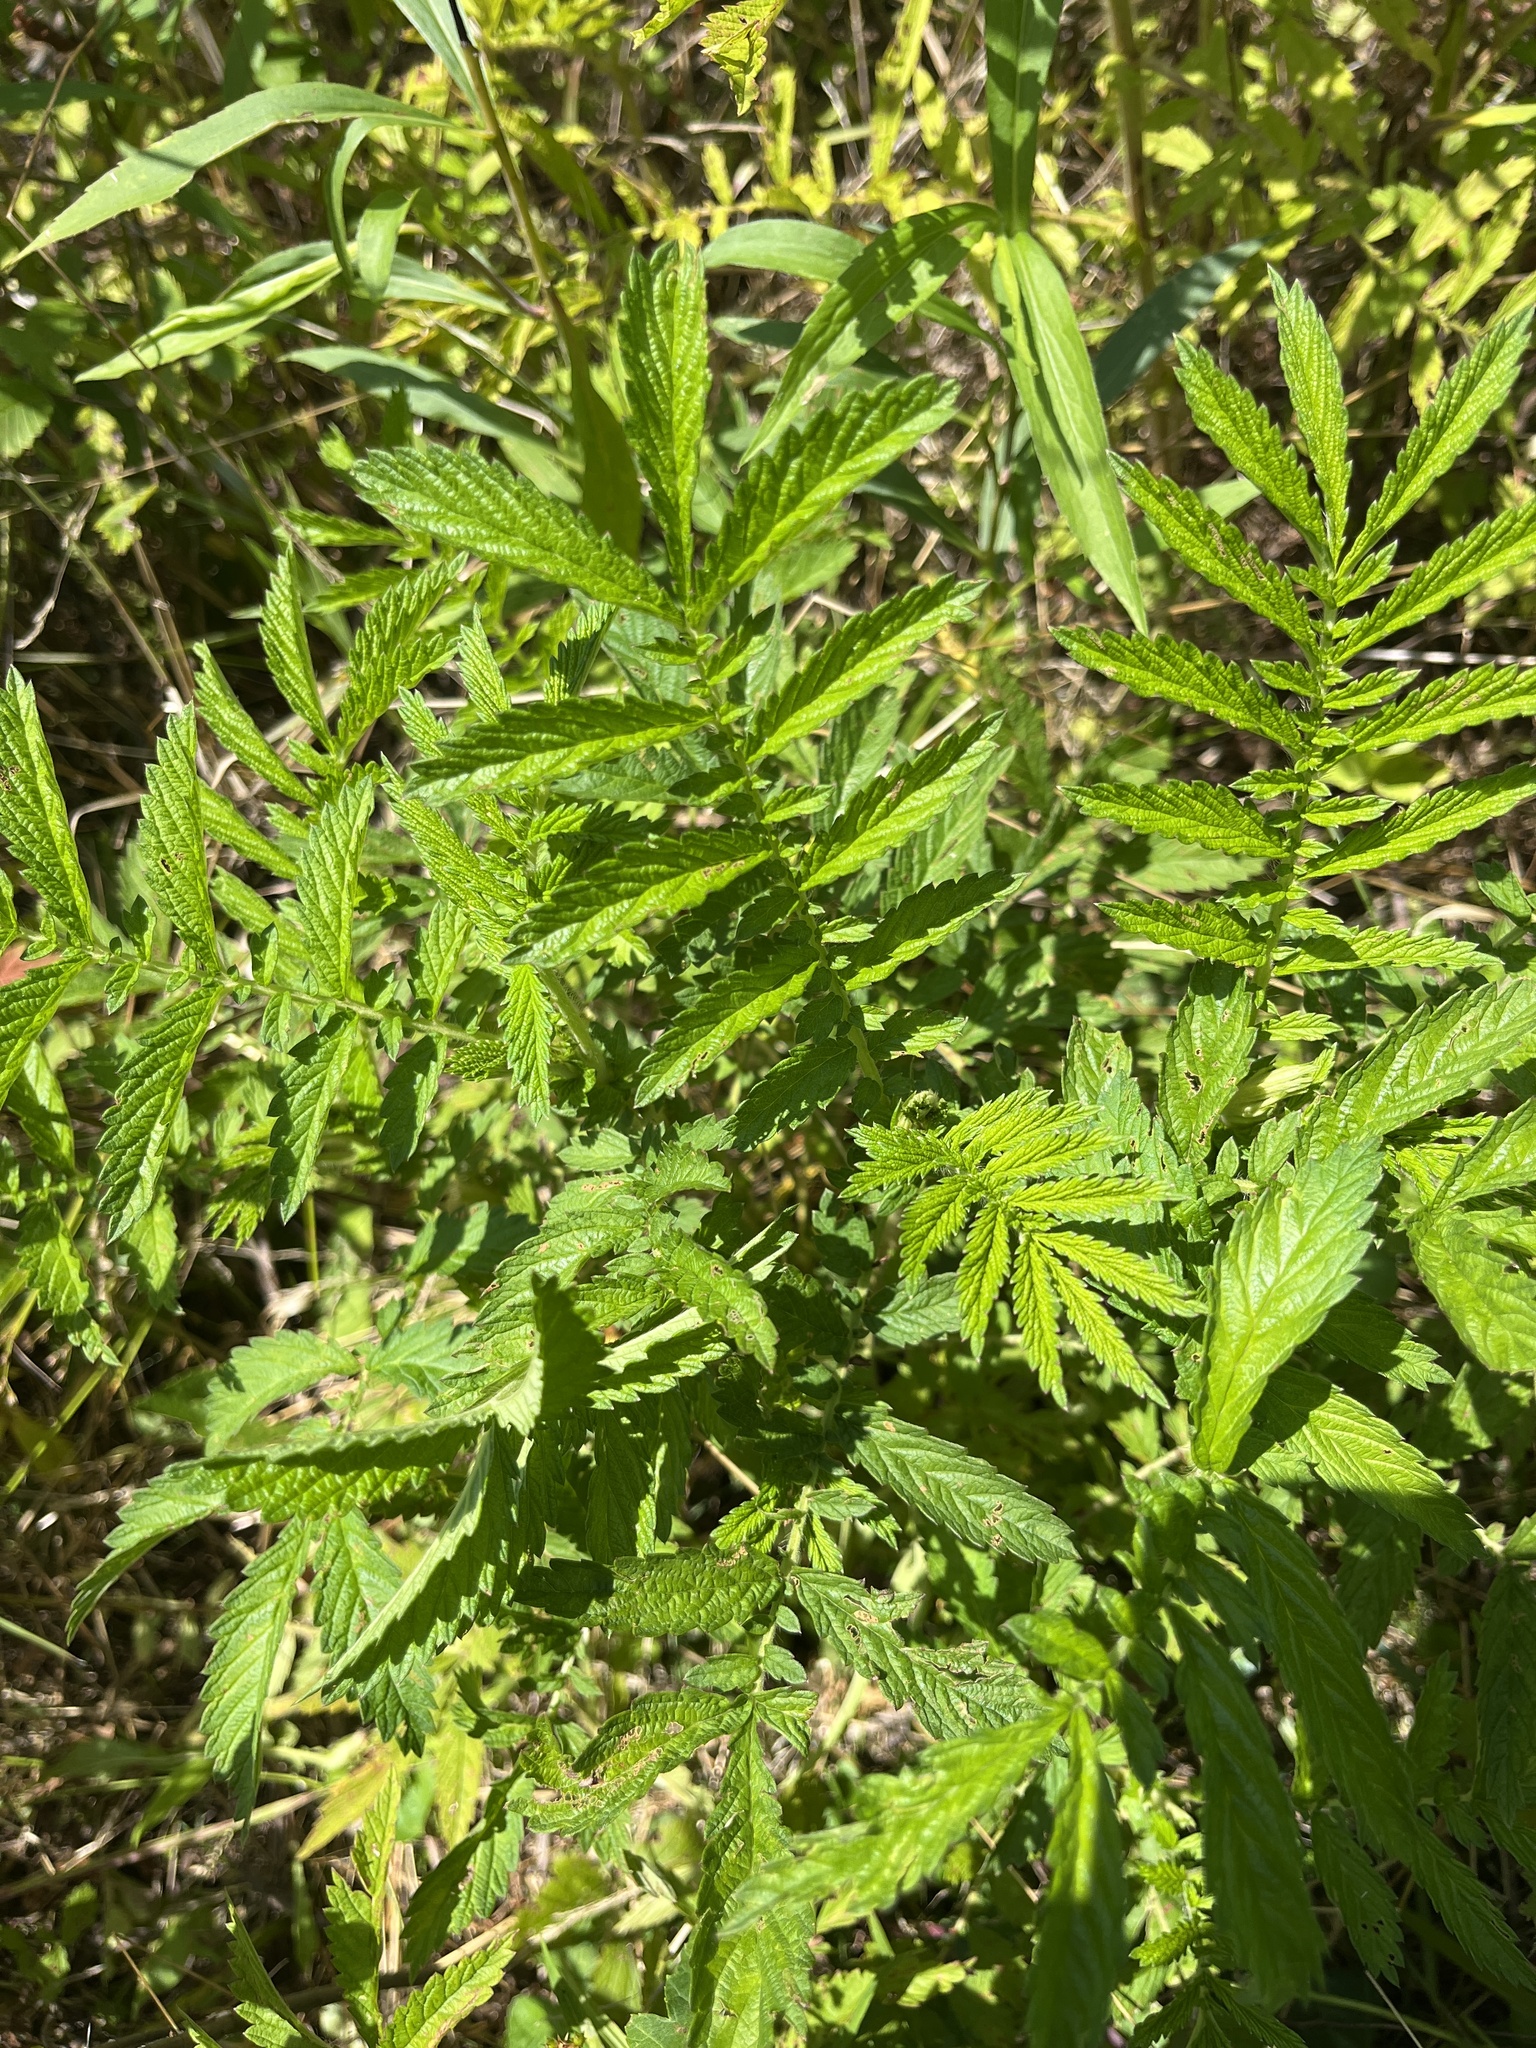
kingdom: Plantae
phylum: Tracheophyta
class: Magnoliopsida
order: Rosales
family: Rosaceae
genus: Agrimonia
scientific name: Agrimonia parviflora
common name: Harvest-lice
